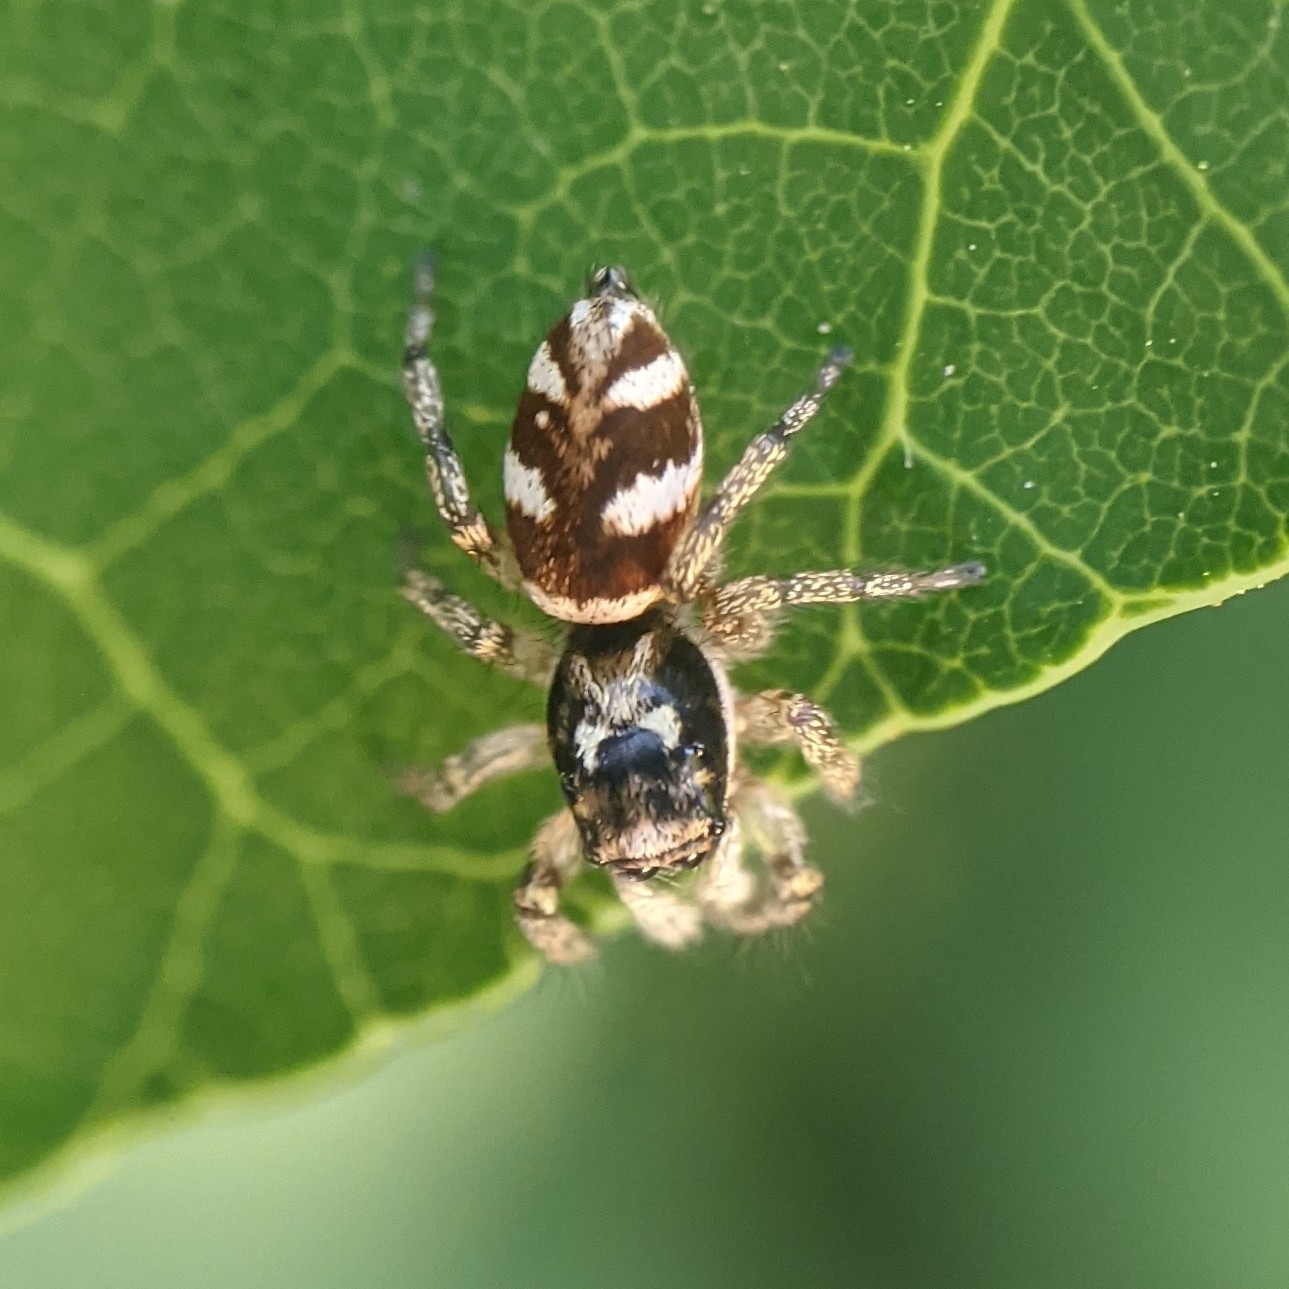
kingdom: Animalia
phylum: Arthropoda
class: Arachnida
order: Araneae
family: Salticidae
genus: Salticus
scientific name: Salticus scenicus
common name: Zebra jumper
